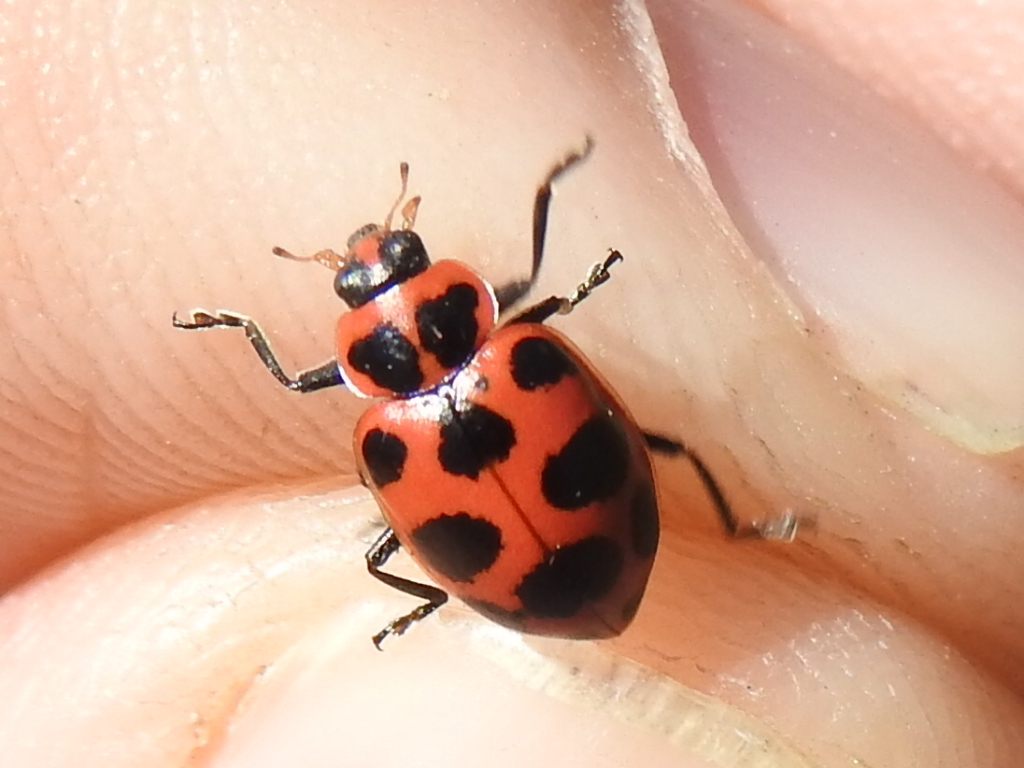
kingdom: Animalia
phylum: Arthropoda
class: Insecta
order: Coleoptera
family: Coccinellidae
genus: Coleomegilla
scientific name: Coleomegilla maculata
